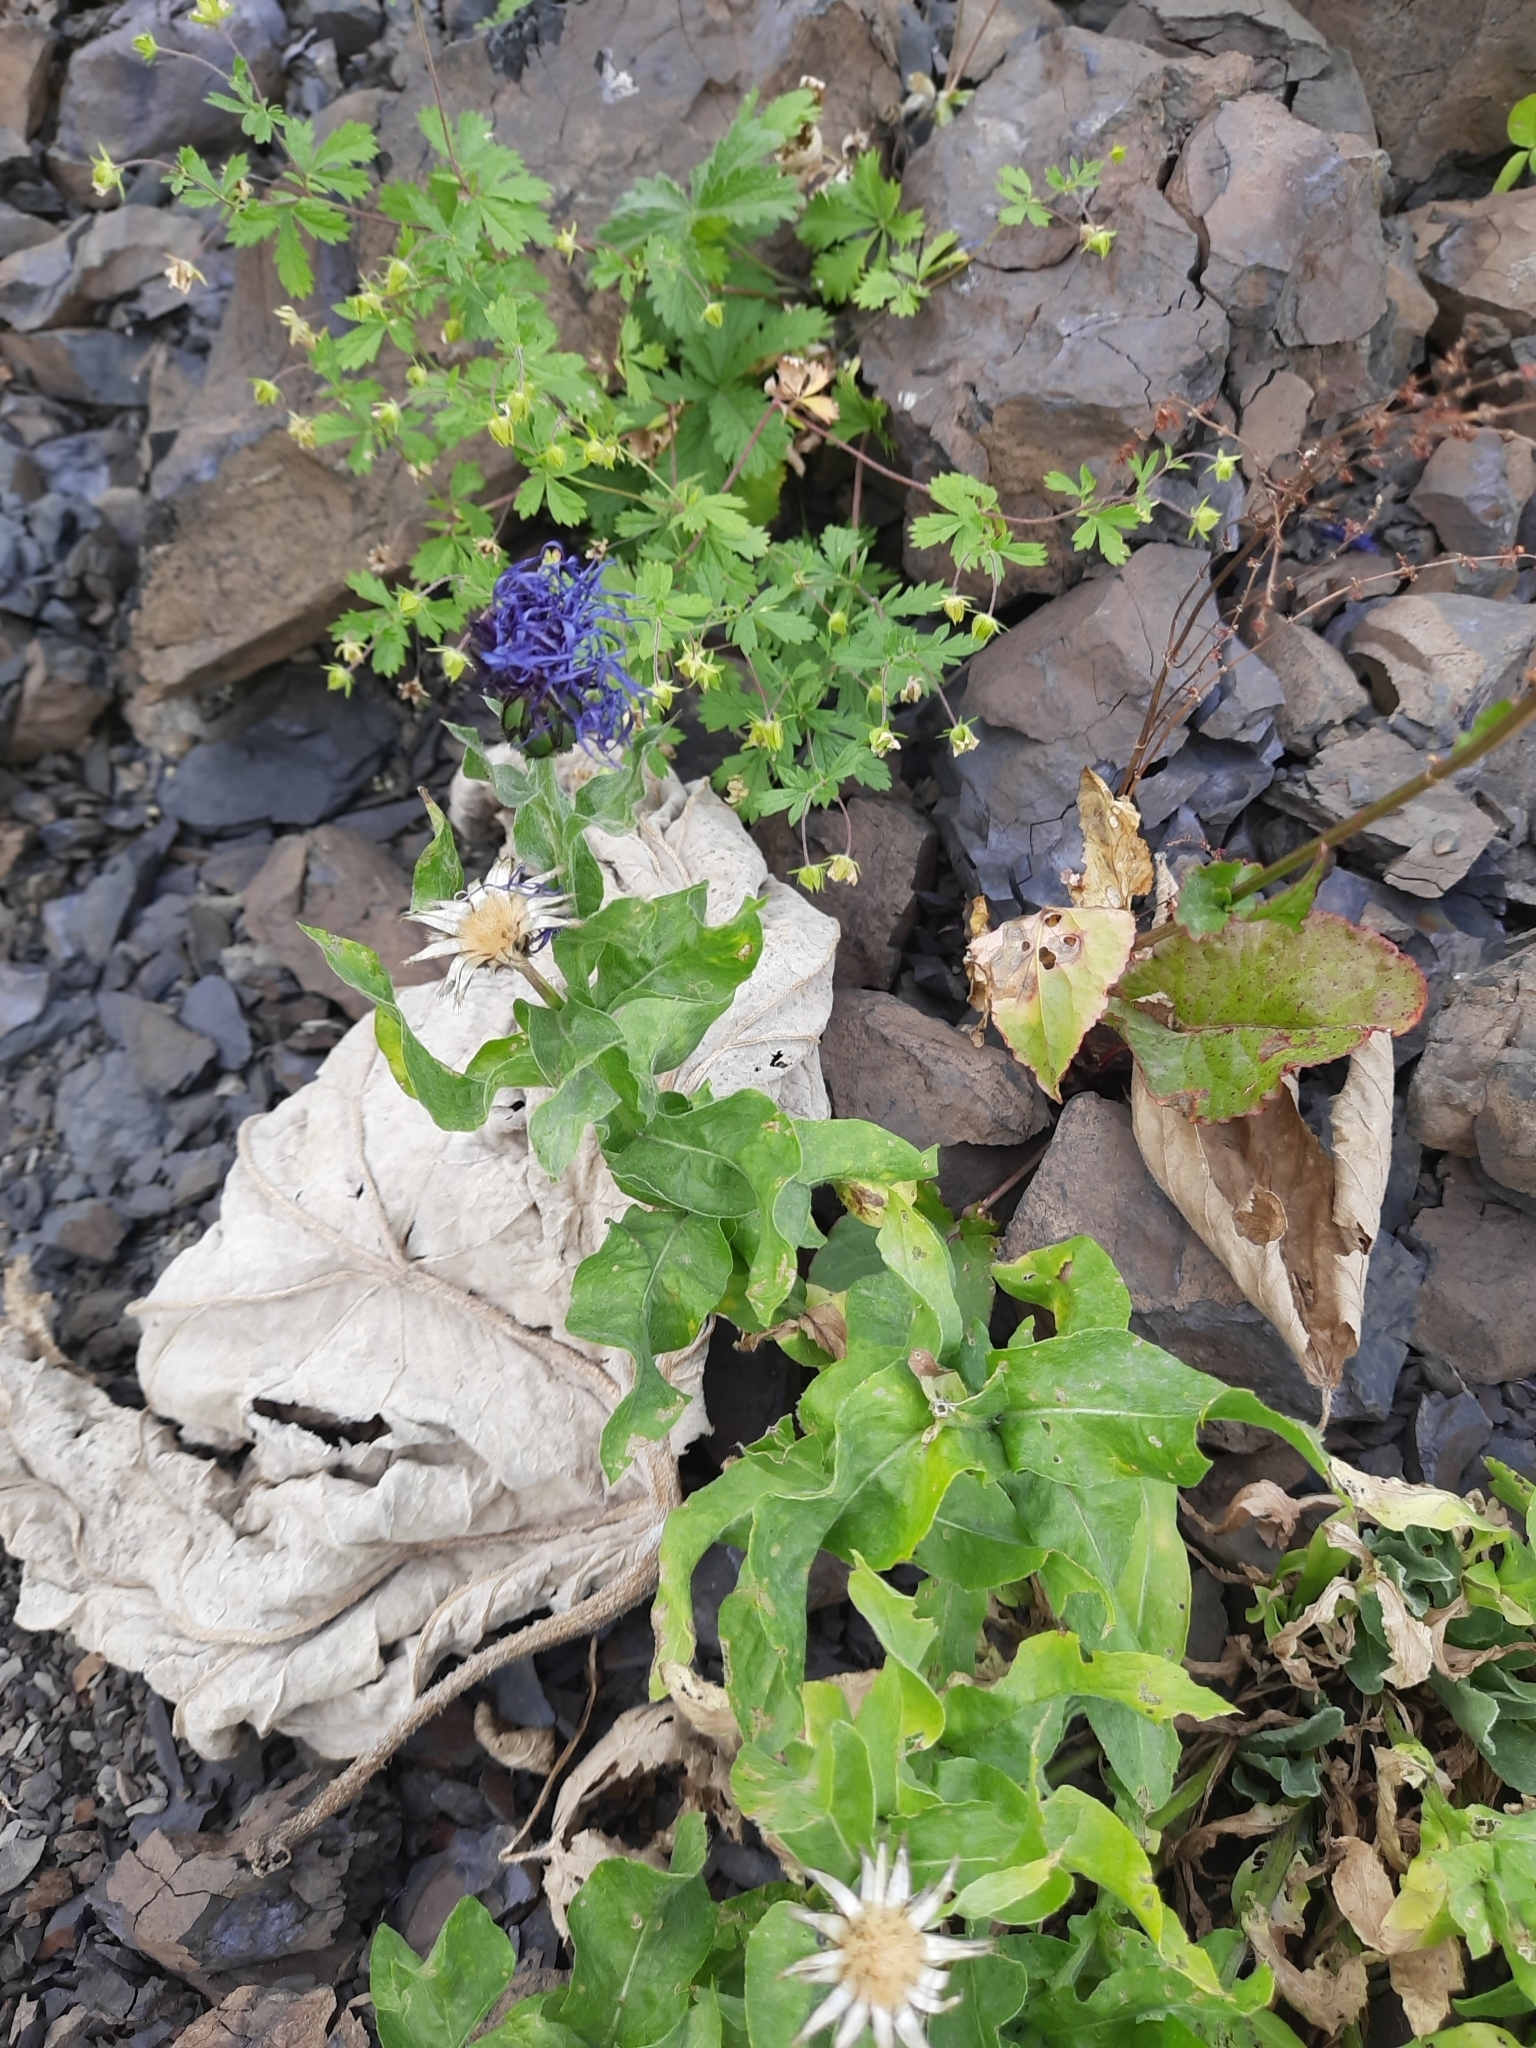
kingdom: Plantae
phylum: Tracheophyta
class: Magnoliopsida
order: Asterales
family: Asteraceae
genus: Centaurea
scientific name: Centaurea nigrofimbria
